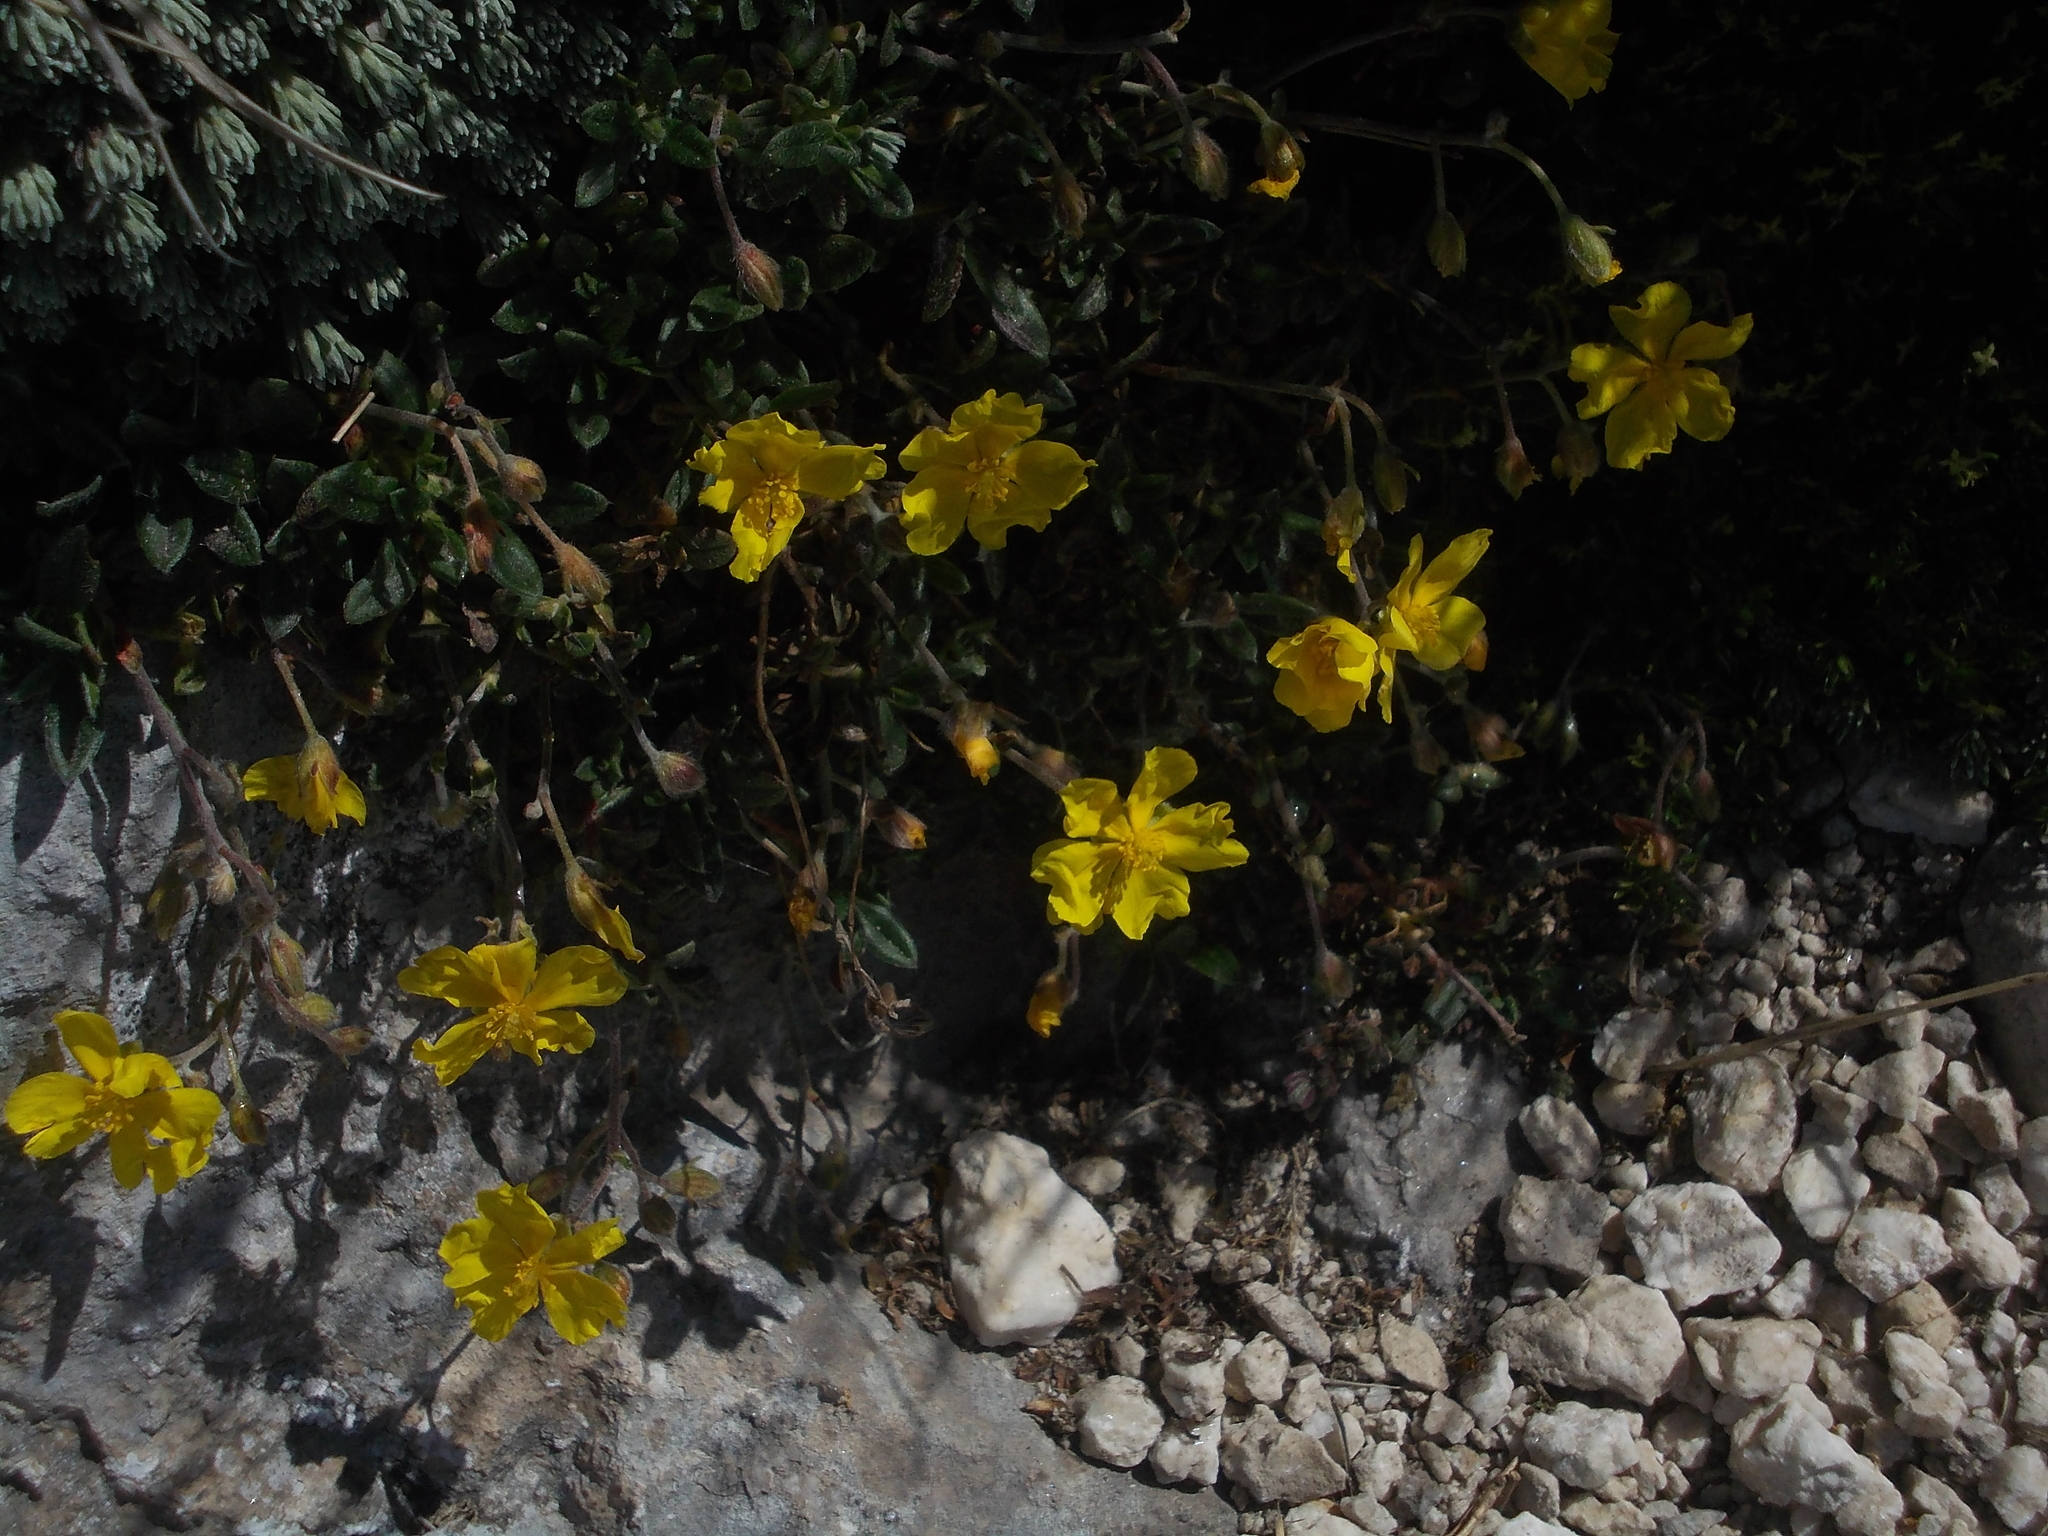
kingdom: Plantae
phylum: Tracheophyta
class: Magnoliopsida
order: Malvales
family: Cistaceae
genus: Helianthemum
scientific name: Helianthemum nummularium
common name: Common rock-rose
